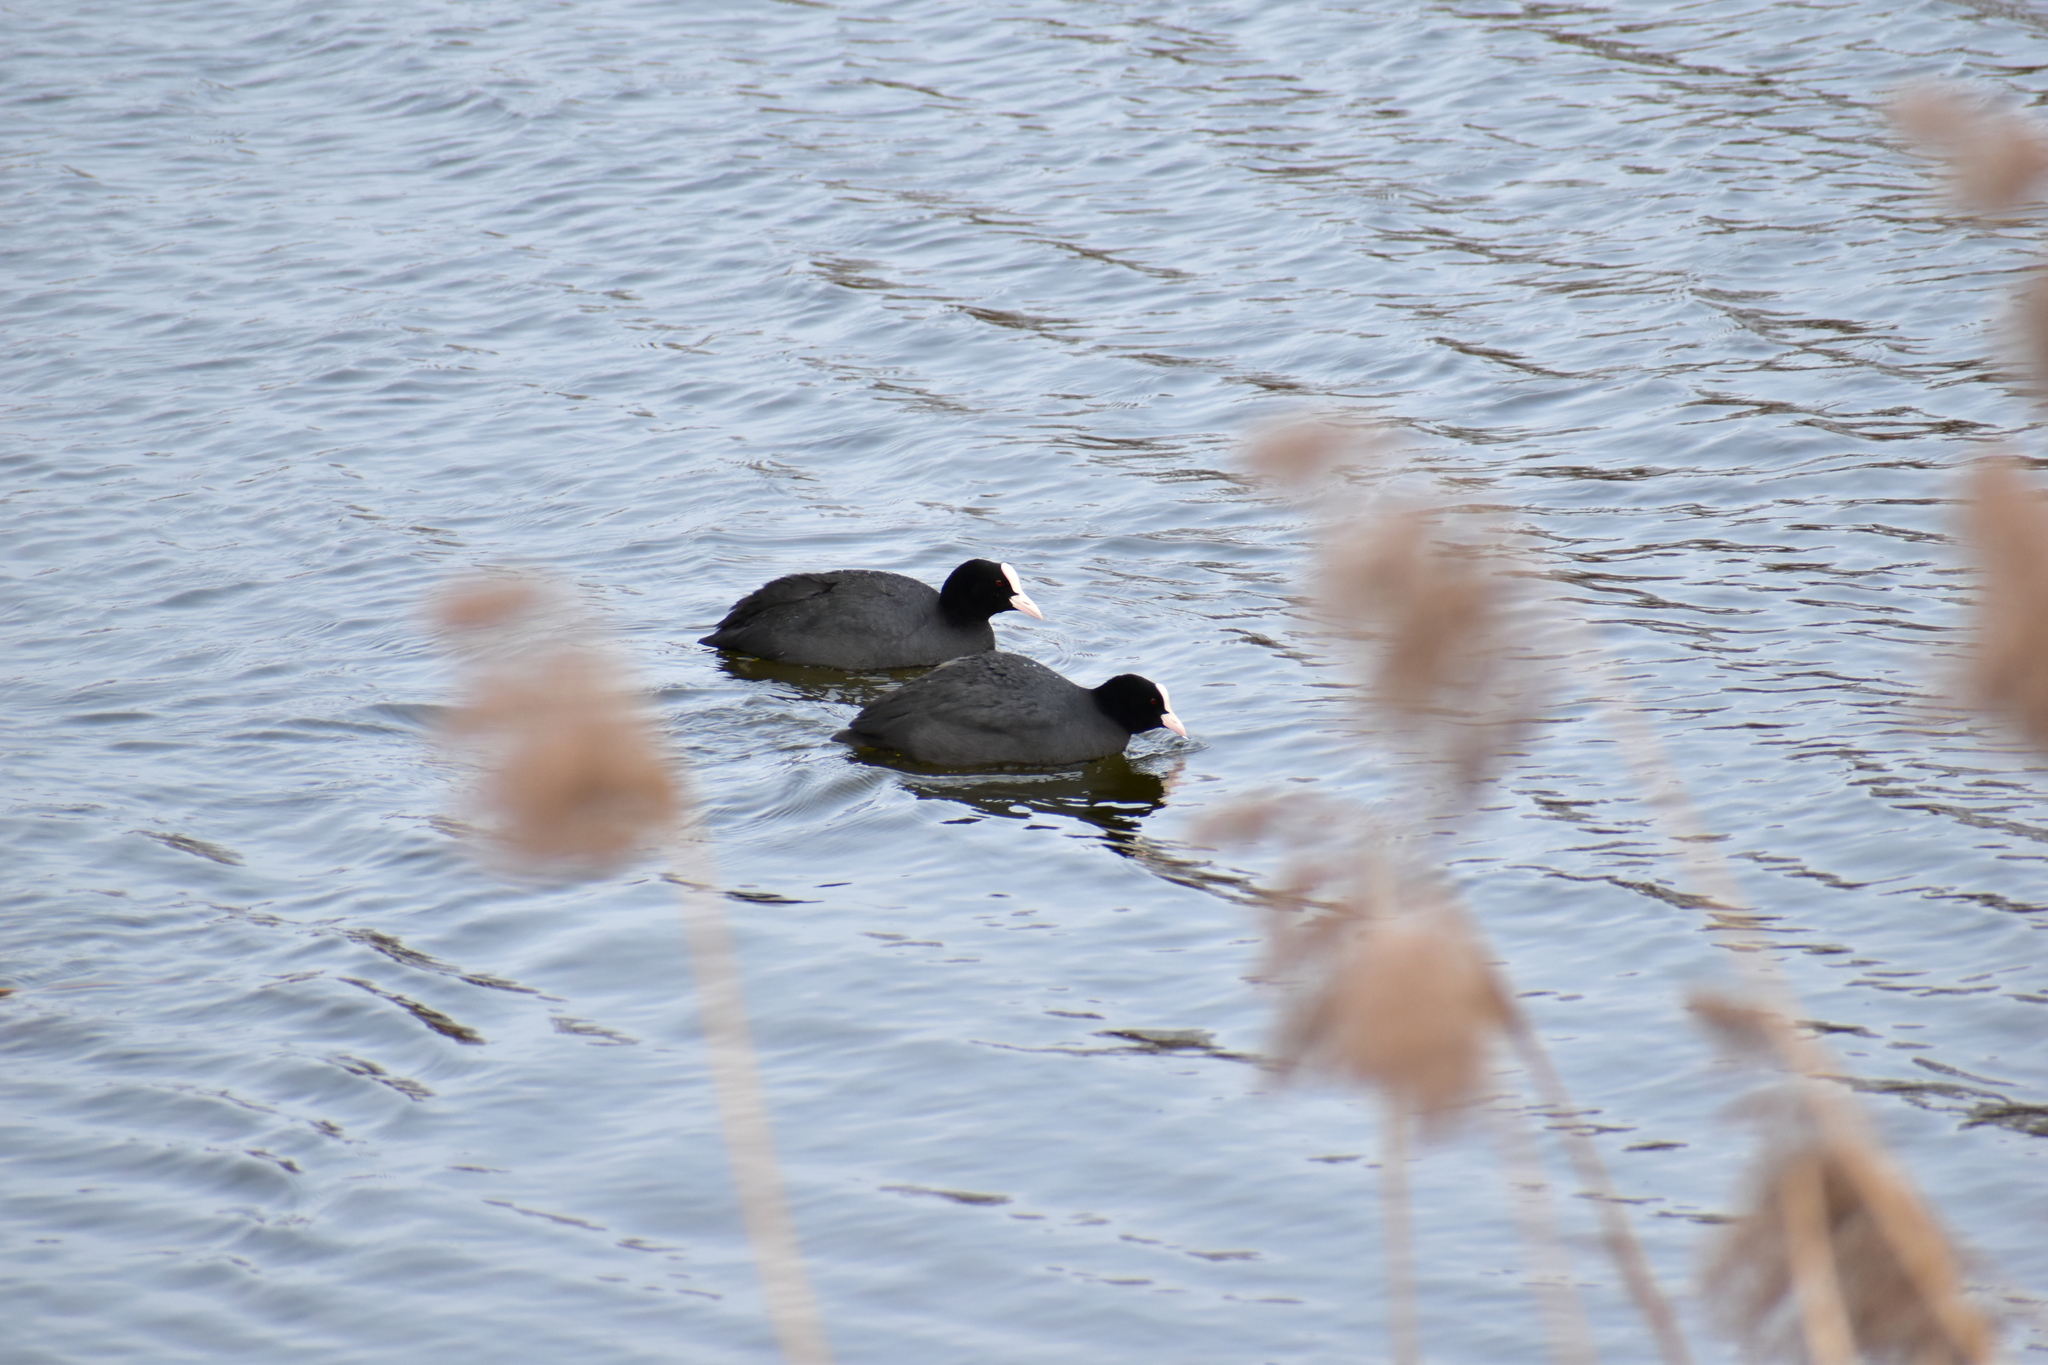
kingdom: Animalia
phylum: Chordata
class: Aves
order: Gruiformes
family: Rallidae
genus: Fulica
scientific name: Fulica atra
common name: Eurasian coot
